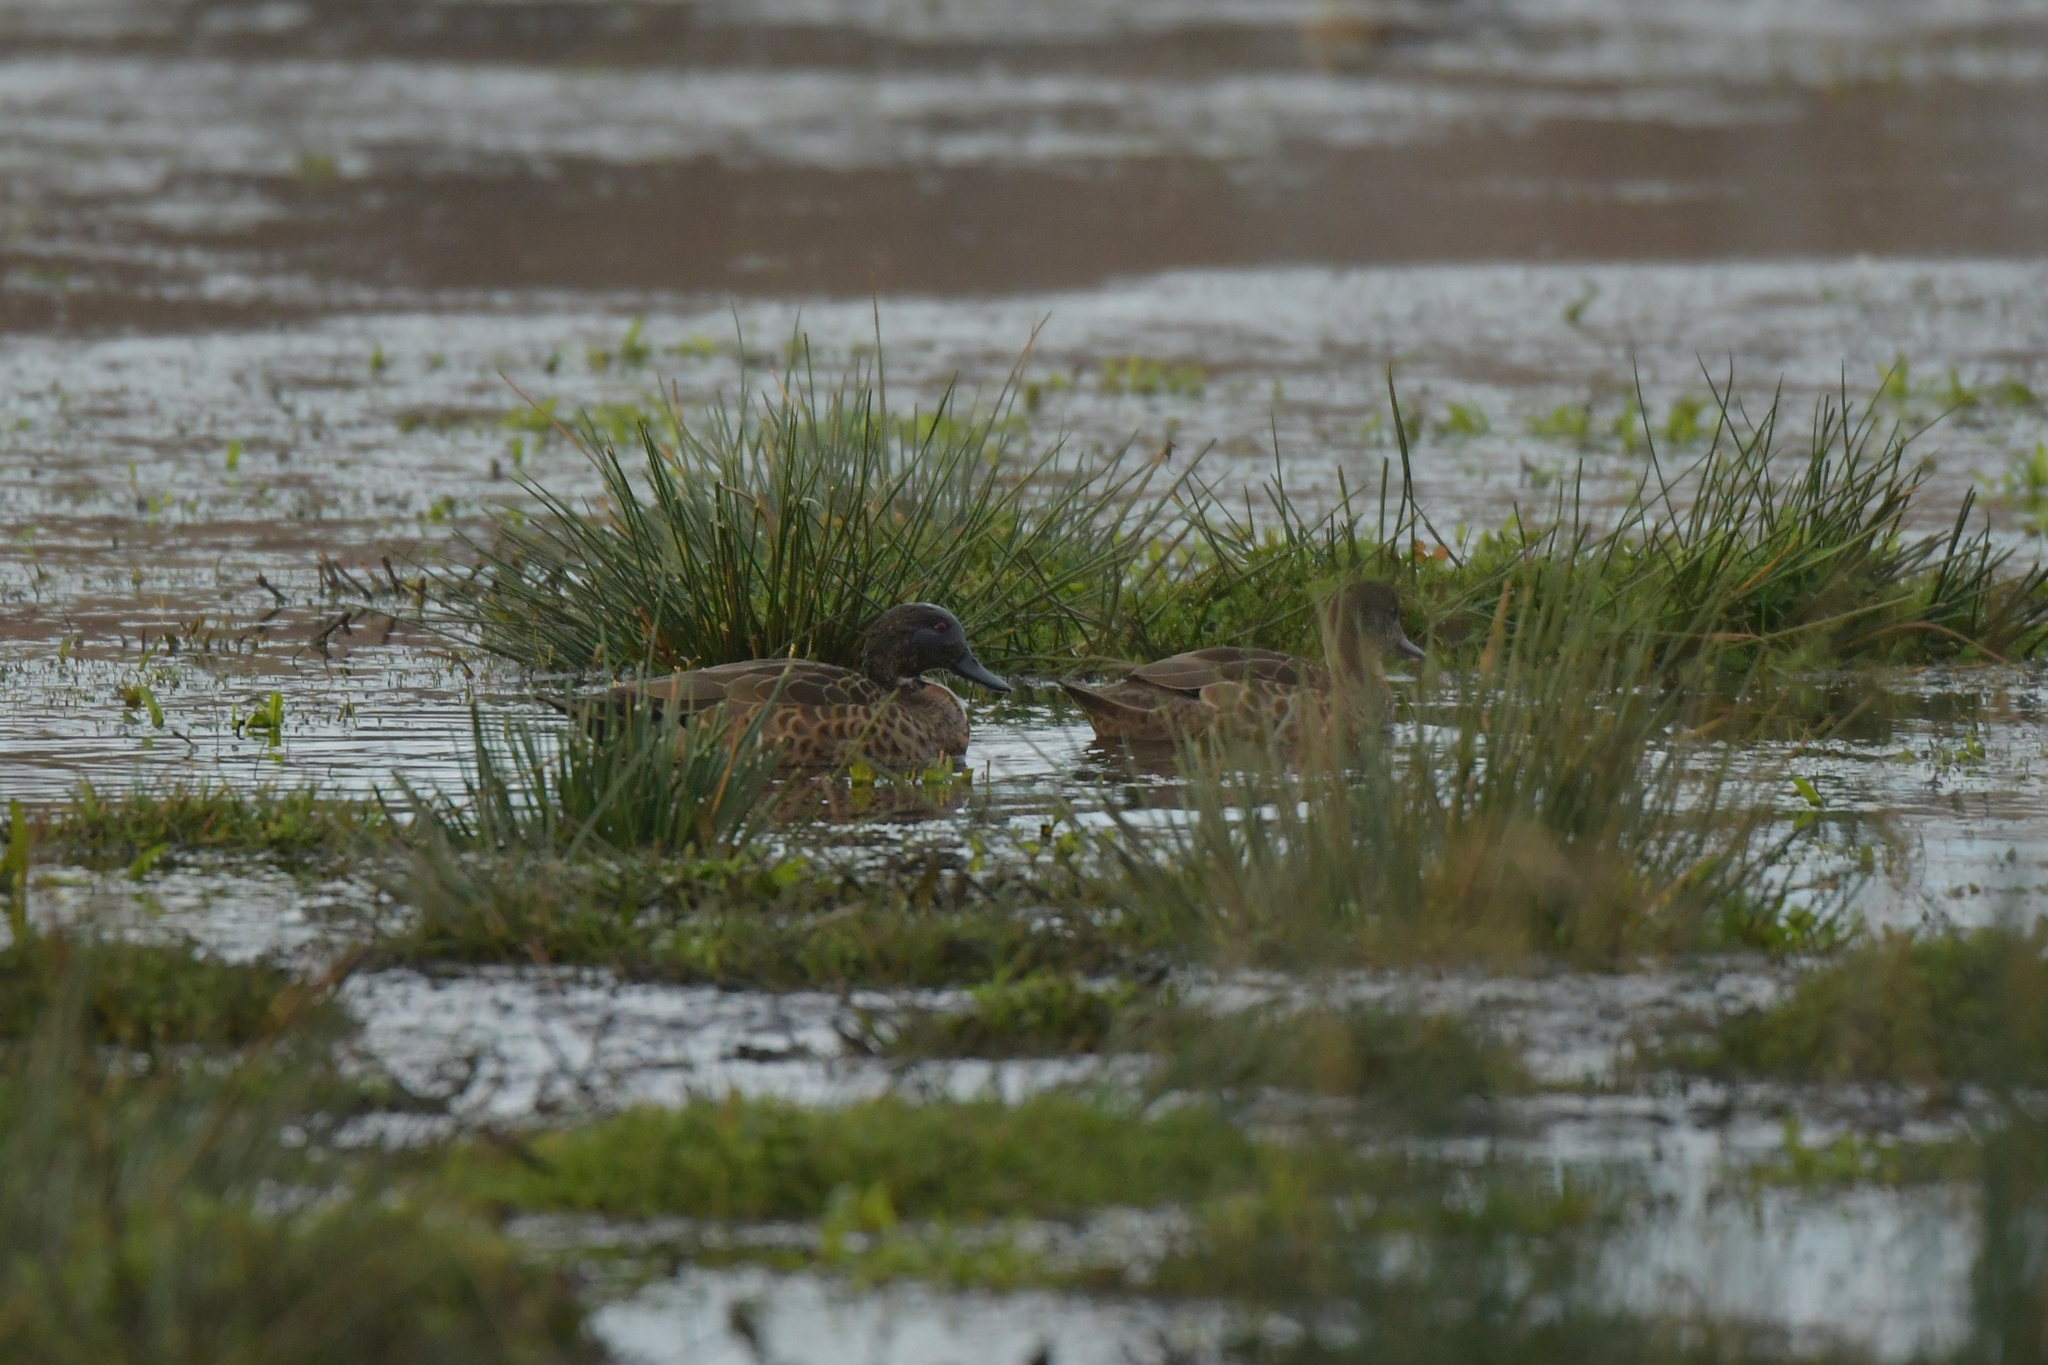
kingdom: Animalia
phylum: Chordata
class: Aves
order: Anseriformes
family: Anatidae
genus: Anas
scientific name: Anas castanea
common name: Chestnut teal
